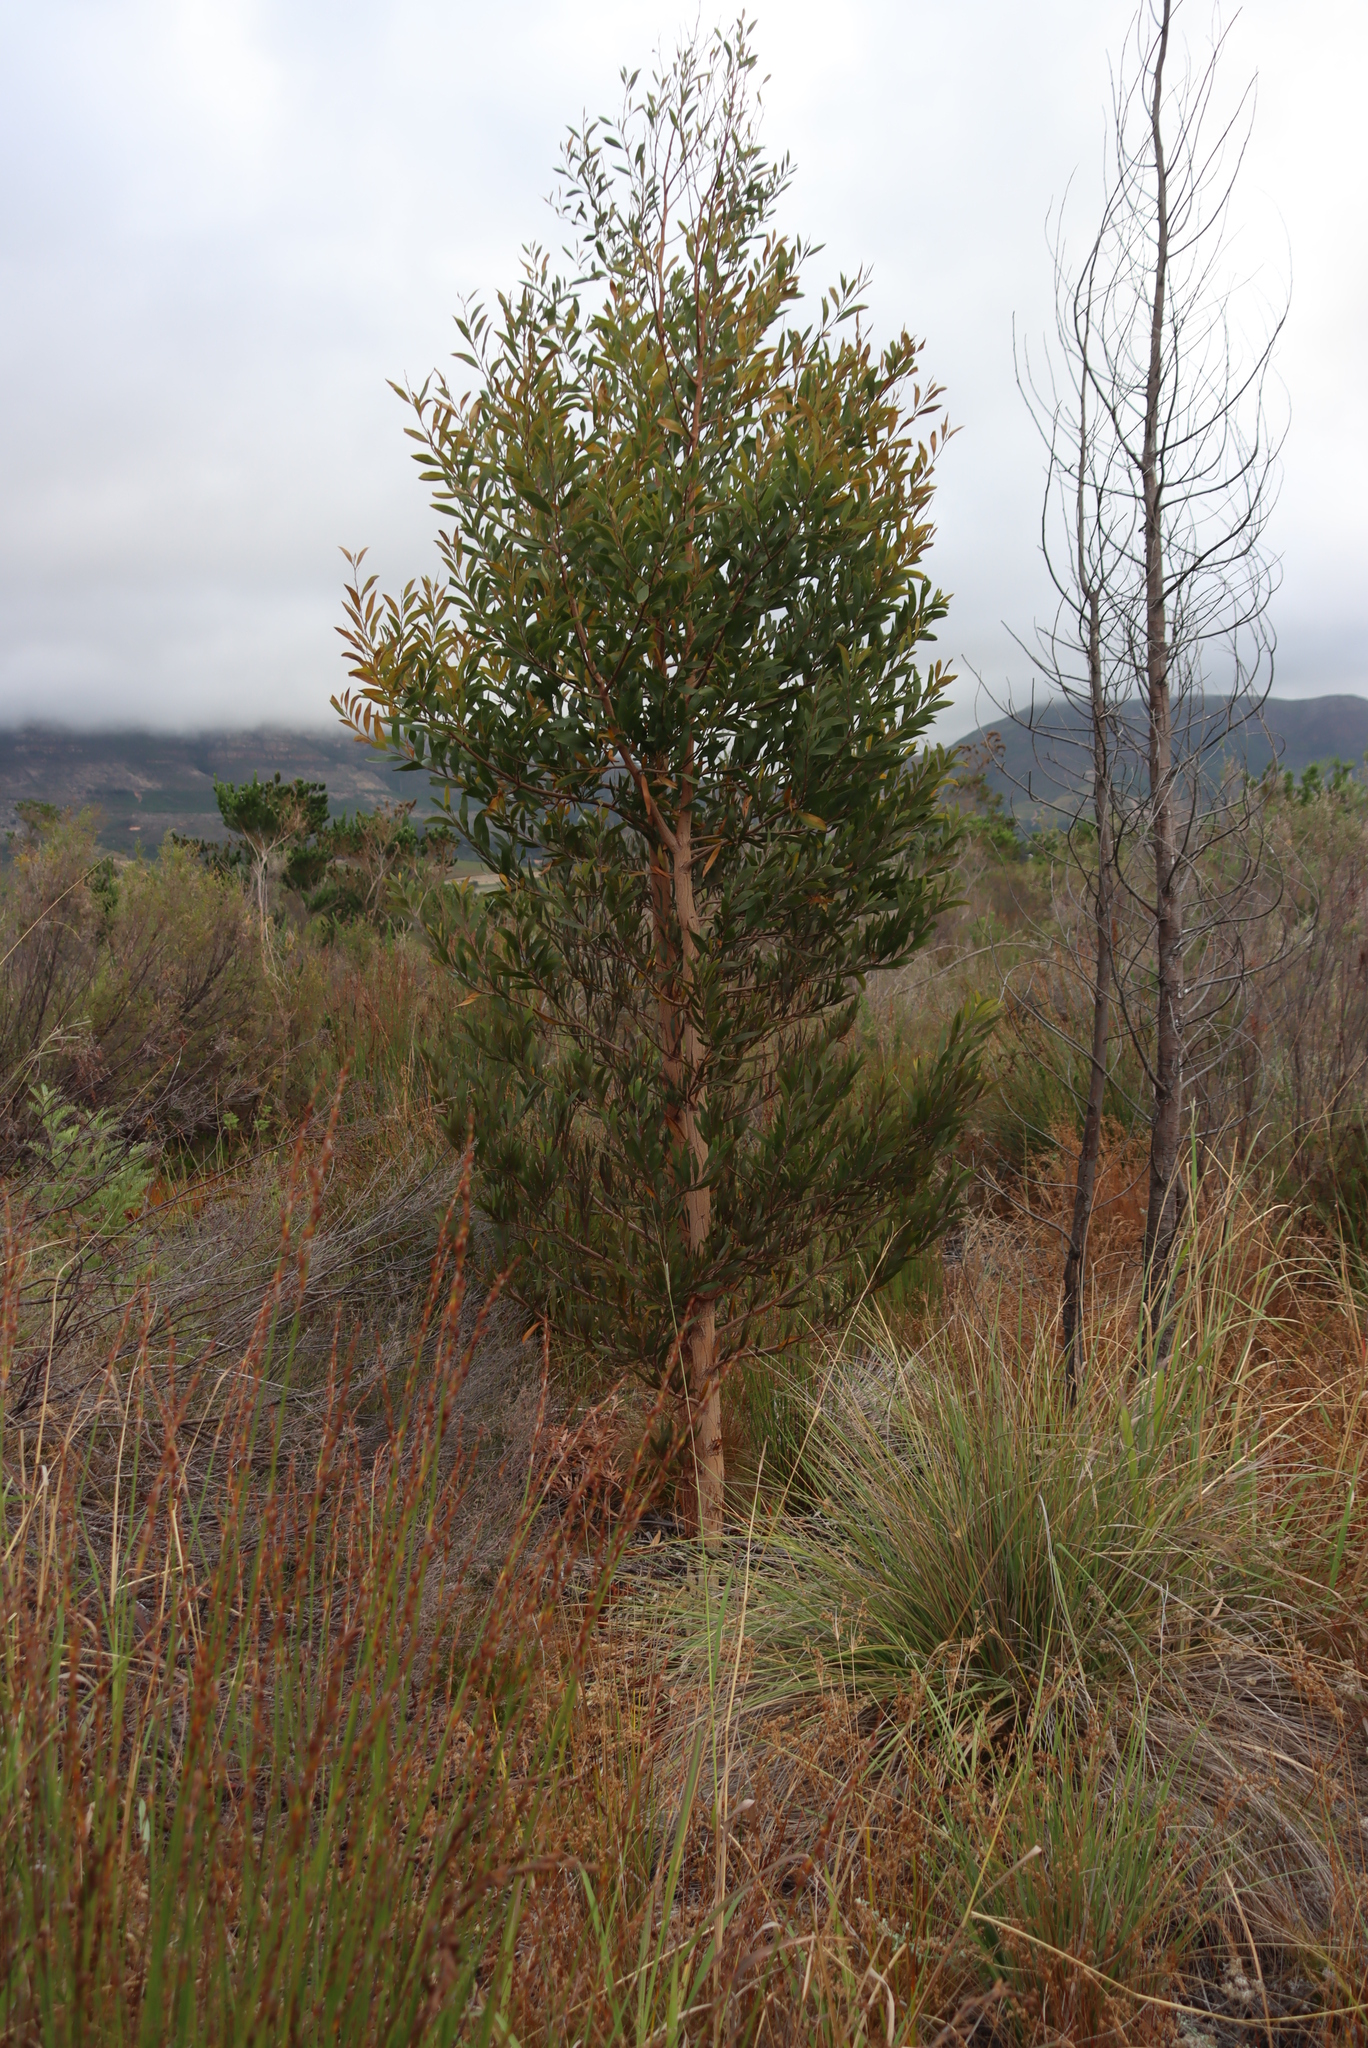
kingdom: Plantae
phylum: Tracheophyta
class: Magnoliopsida
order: Fabales
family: Fabaceae
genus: Acacia
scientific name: Acacia melanoxylon
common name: Blackwood
